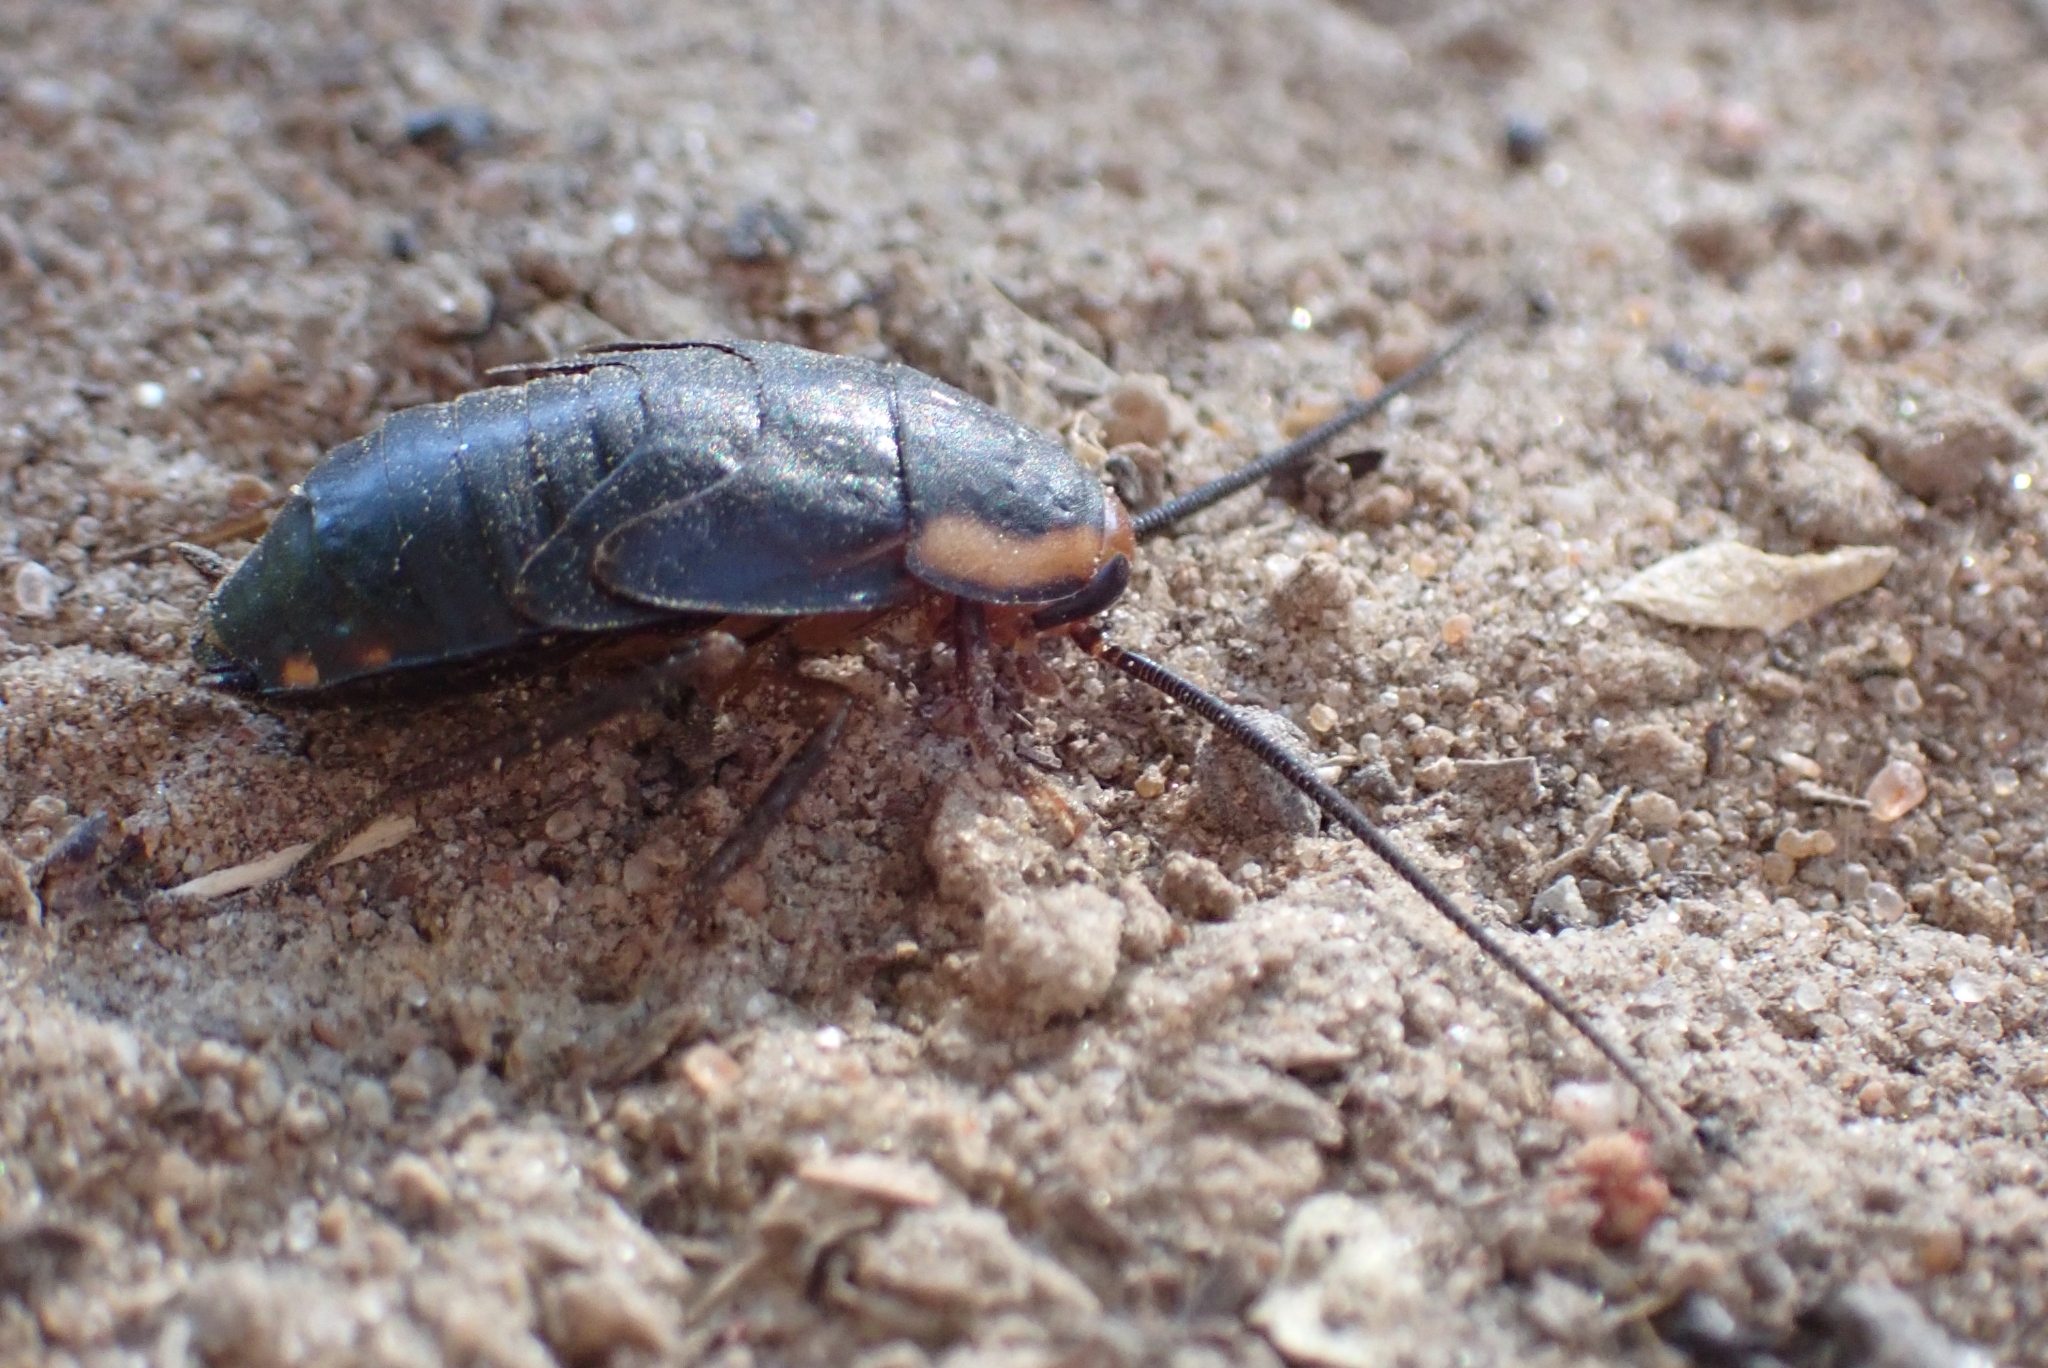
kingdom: Animalia
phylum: Arthropoda
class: Insecta
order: Blattodea
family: Blattidae
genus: Deropeltis
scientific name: Deropeltis paulinoi
